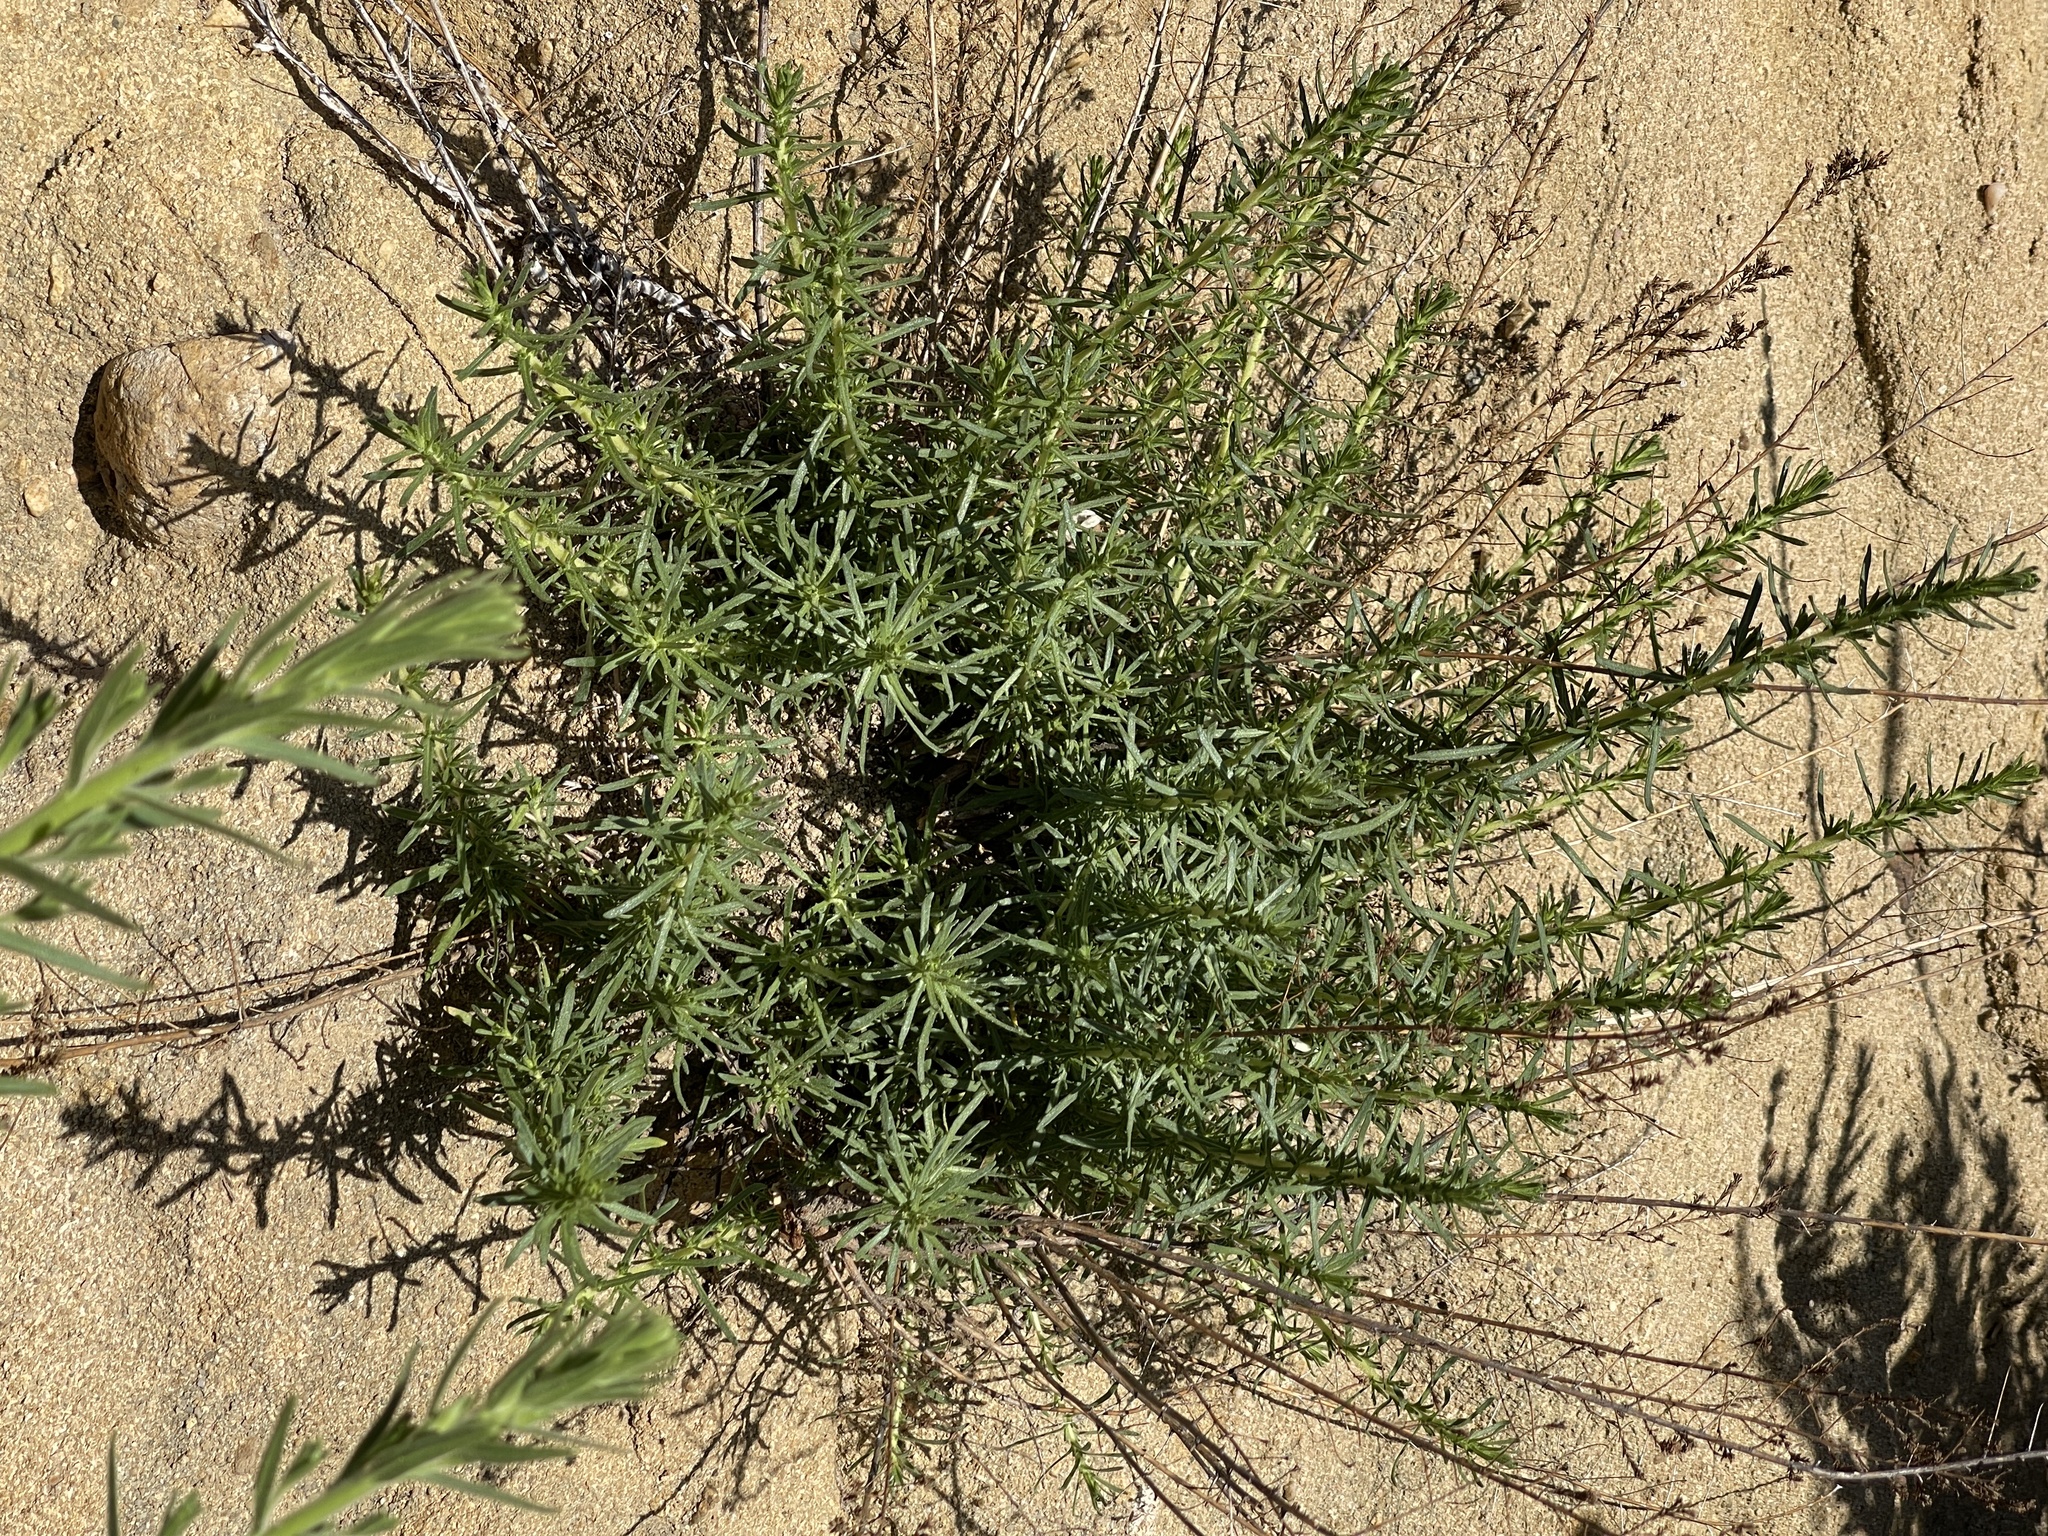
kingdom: Plantae
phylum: Tracheophyta
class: Magnoliopsida
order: Asterales
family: Asteraceae
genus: Deinandra
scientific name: Deinandra minthornii
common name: Santa susana tarplant
